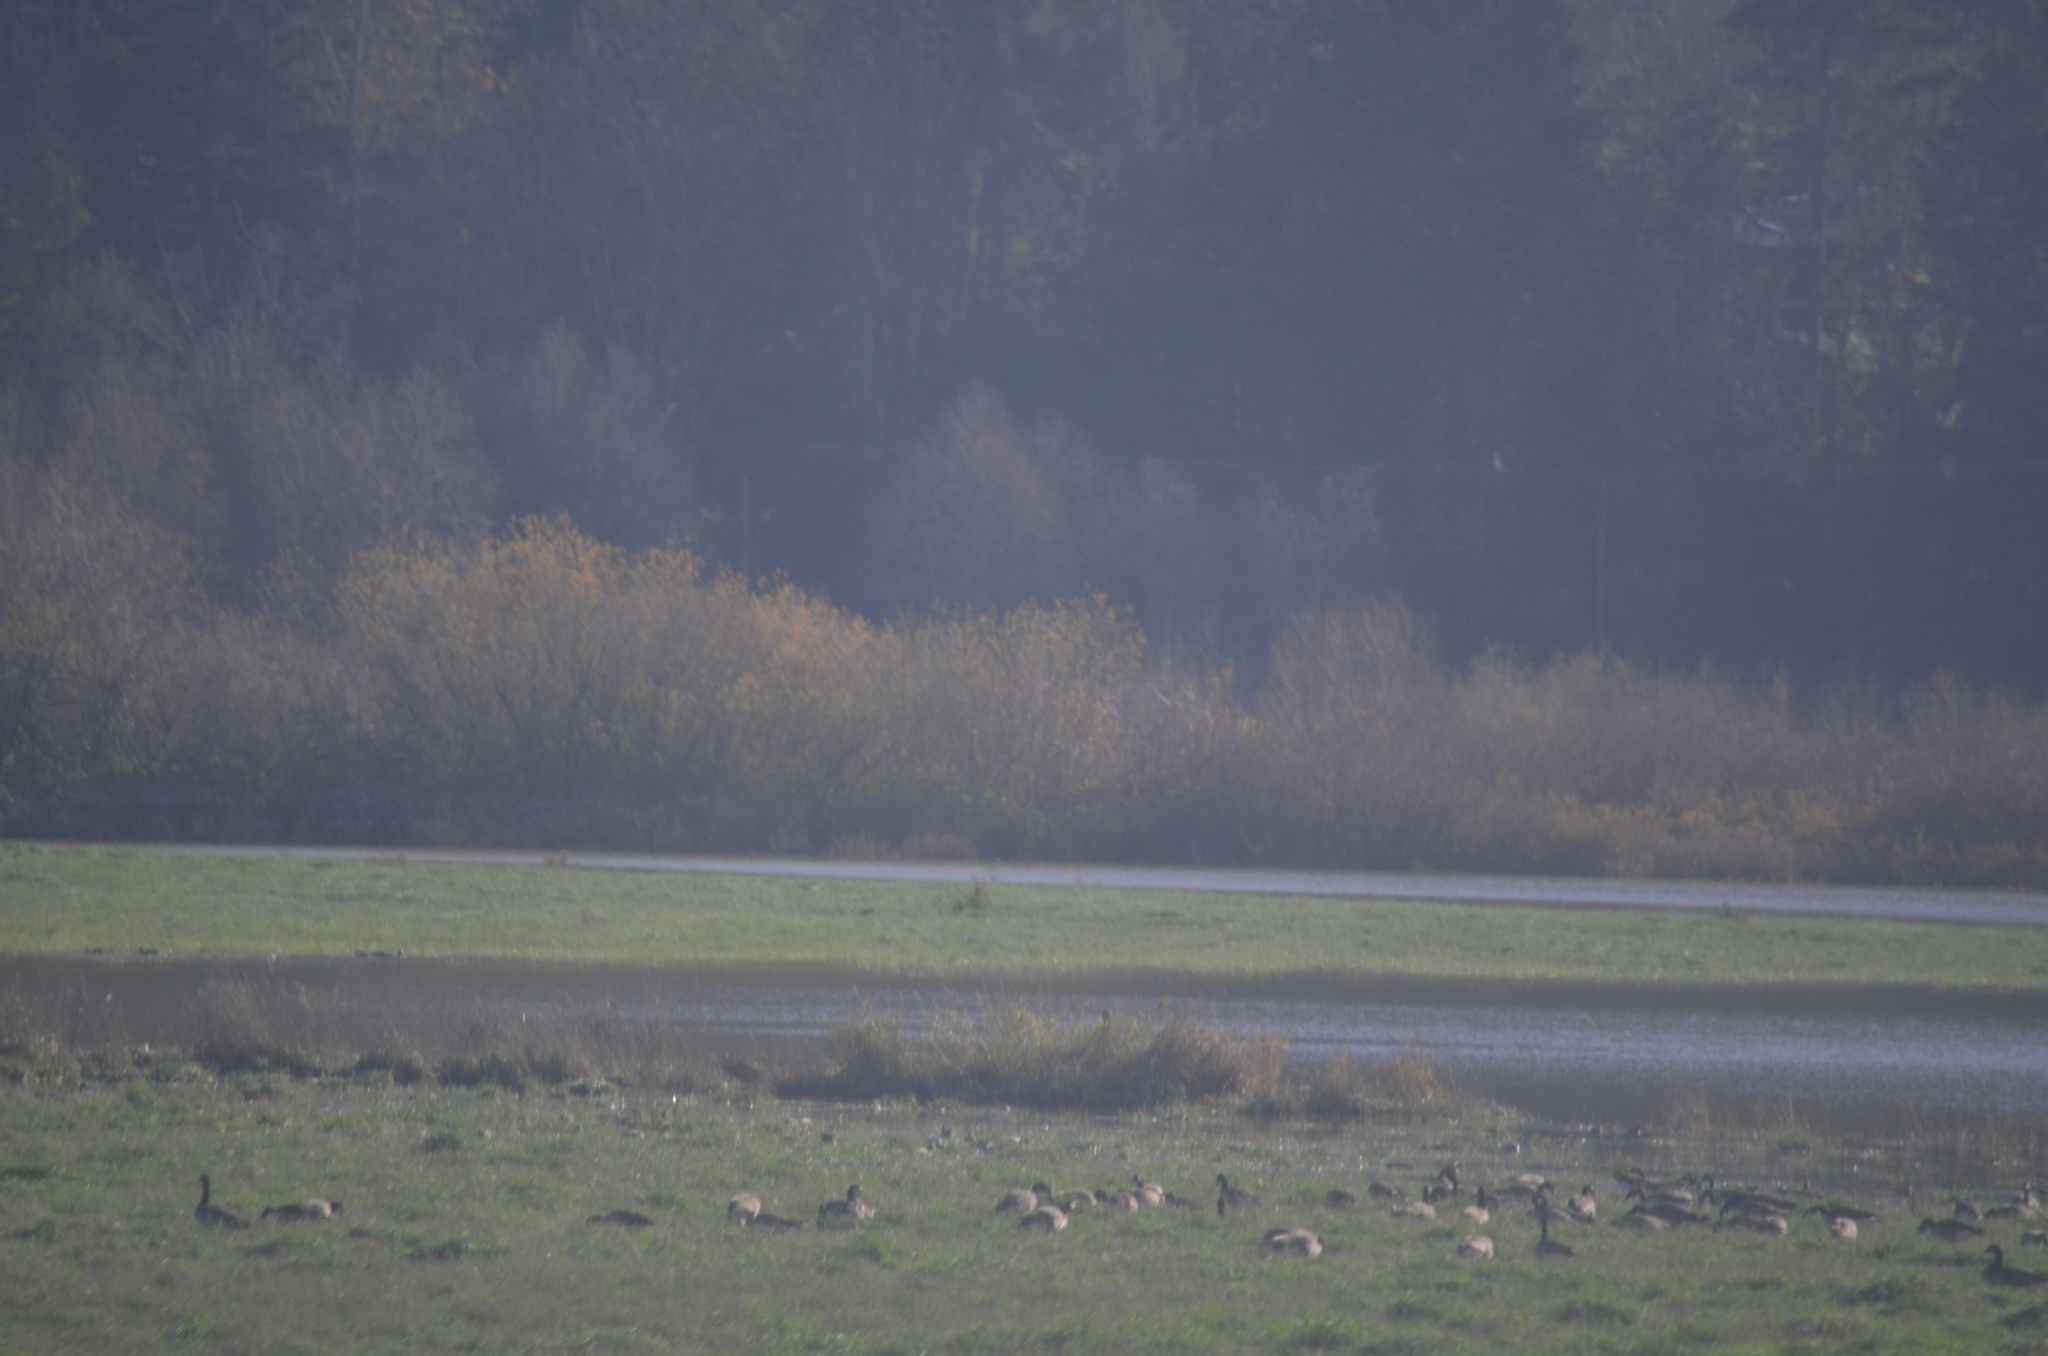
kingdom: Animalia
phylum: Chordata
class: Aves
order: Anseriformes
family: Anatidae
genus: Branta
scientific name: Branta canadensis
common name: Canada goose
